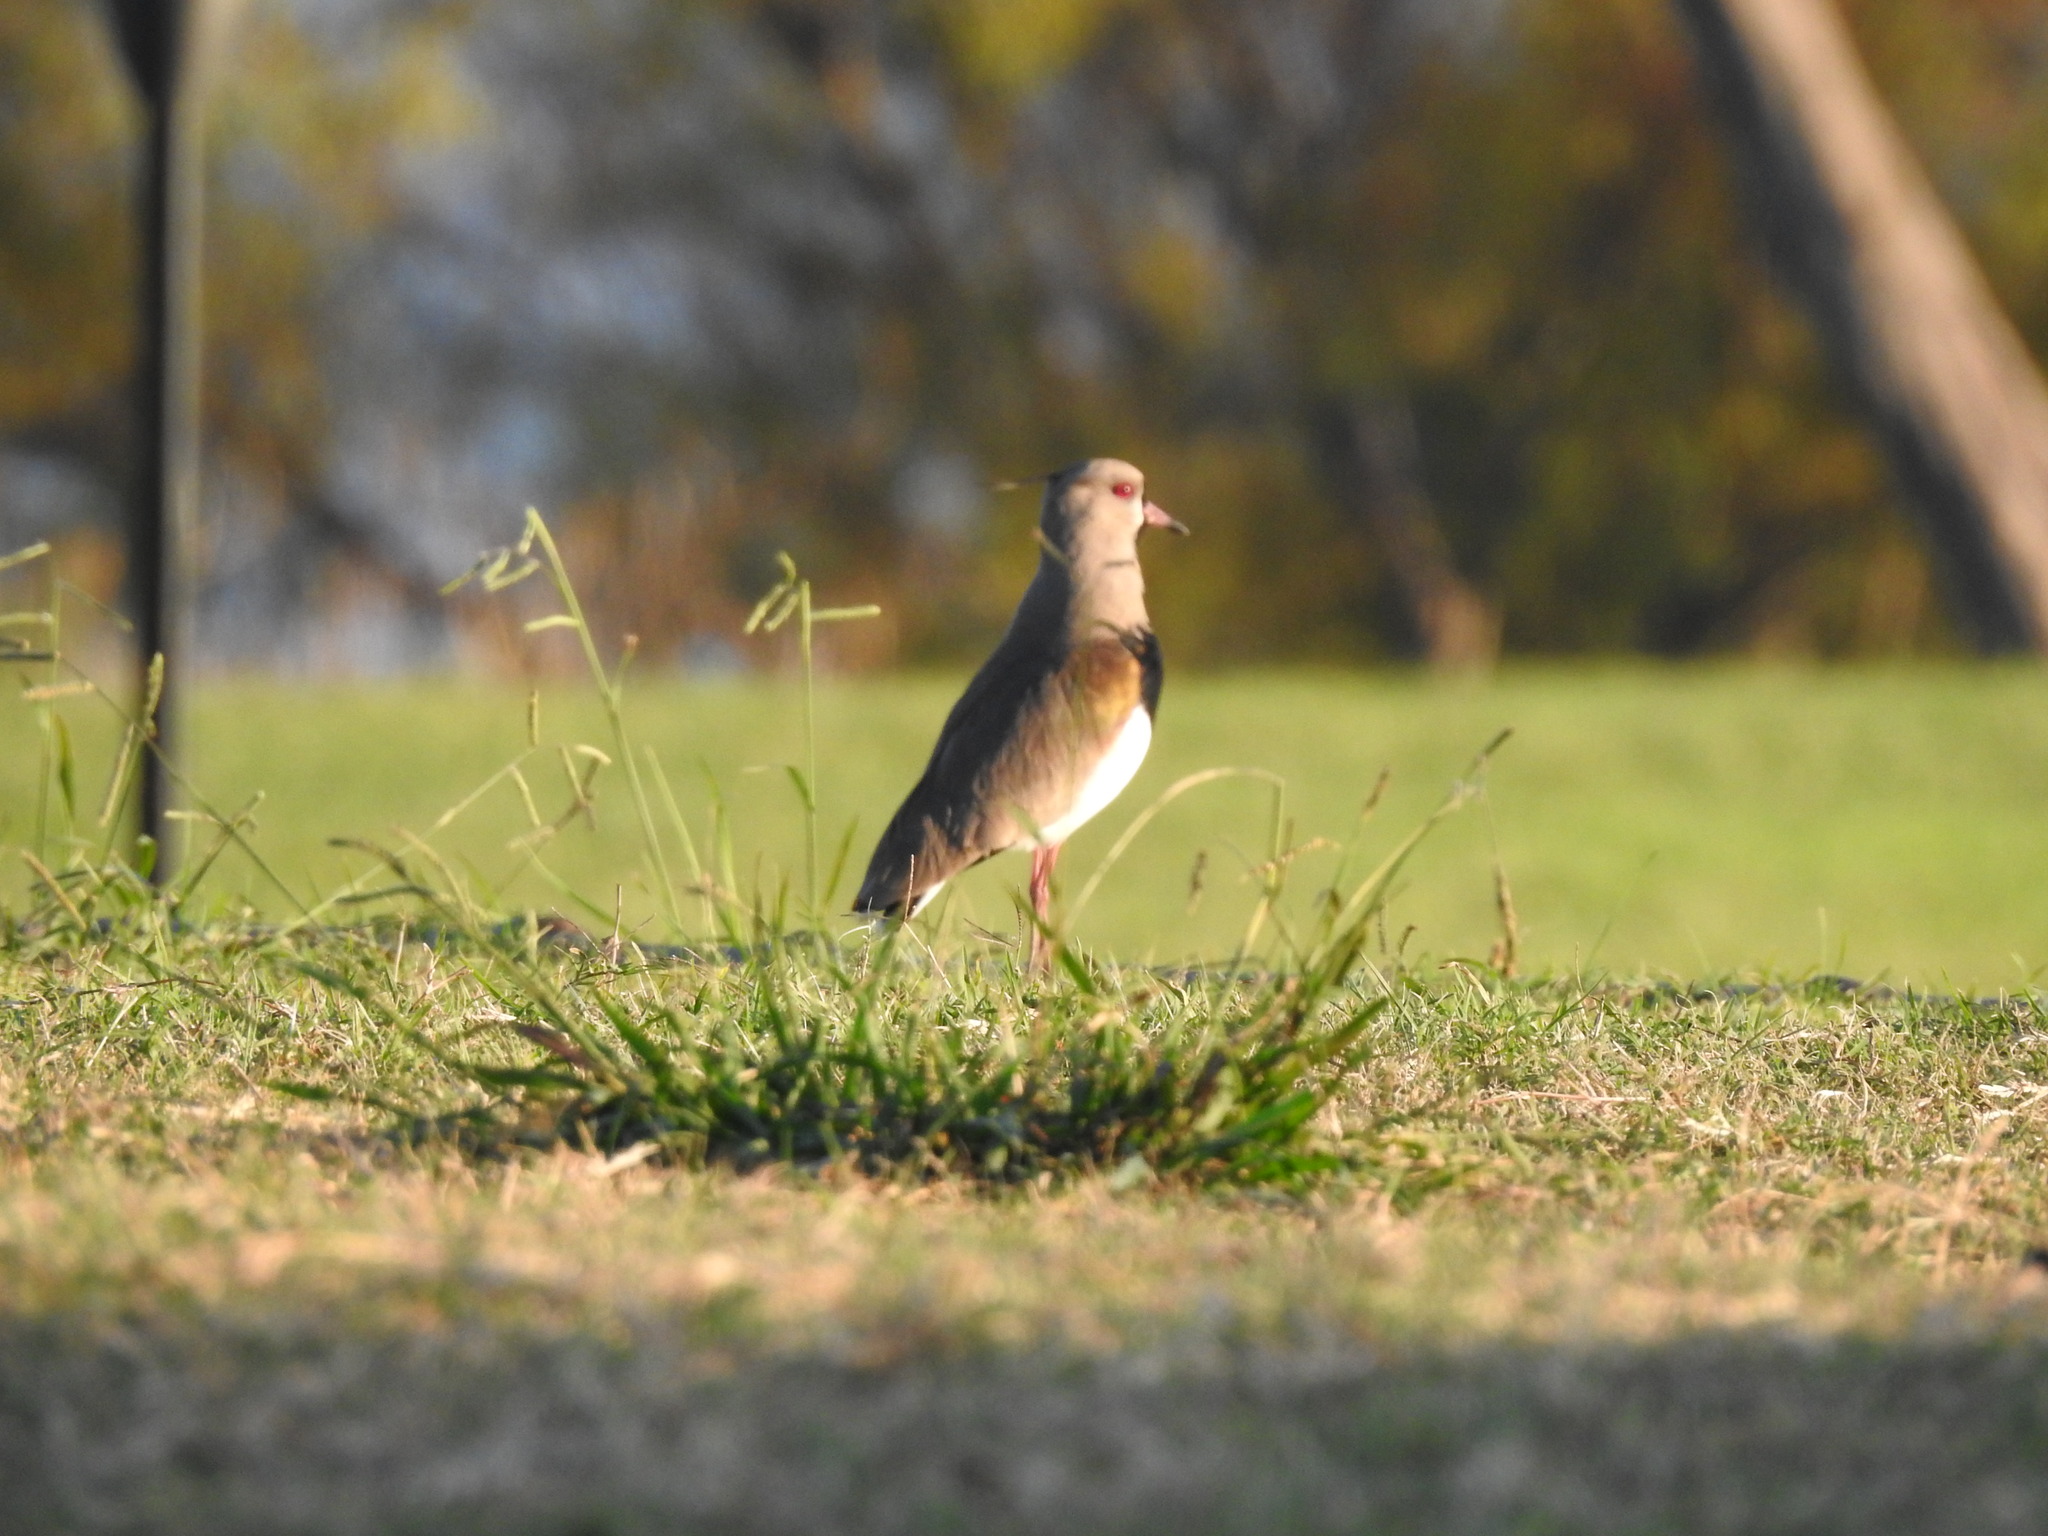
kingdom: Animalia
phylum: Chordata
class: Aves
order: Charadriiformes
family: Charadriidae
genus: Vanellus
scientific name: Vanellus chilensis
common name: Southern lapwing
